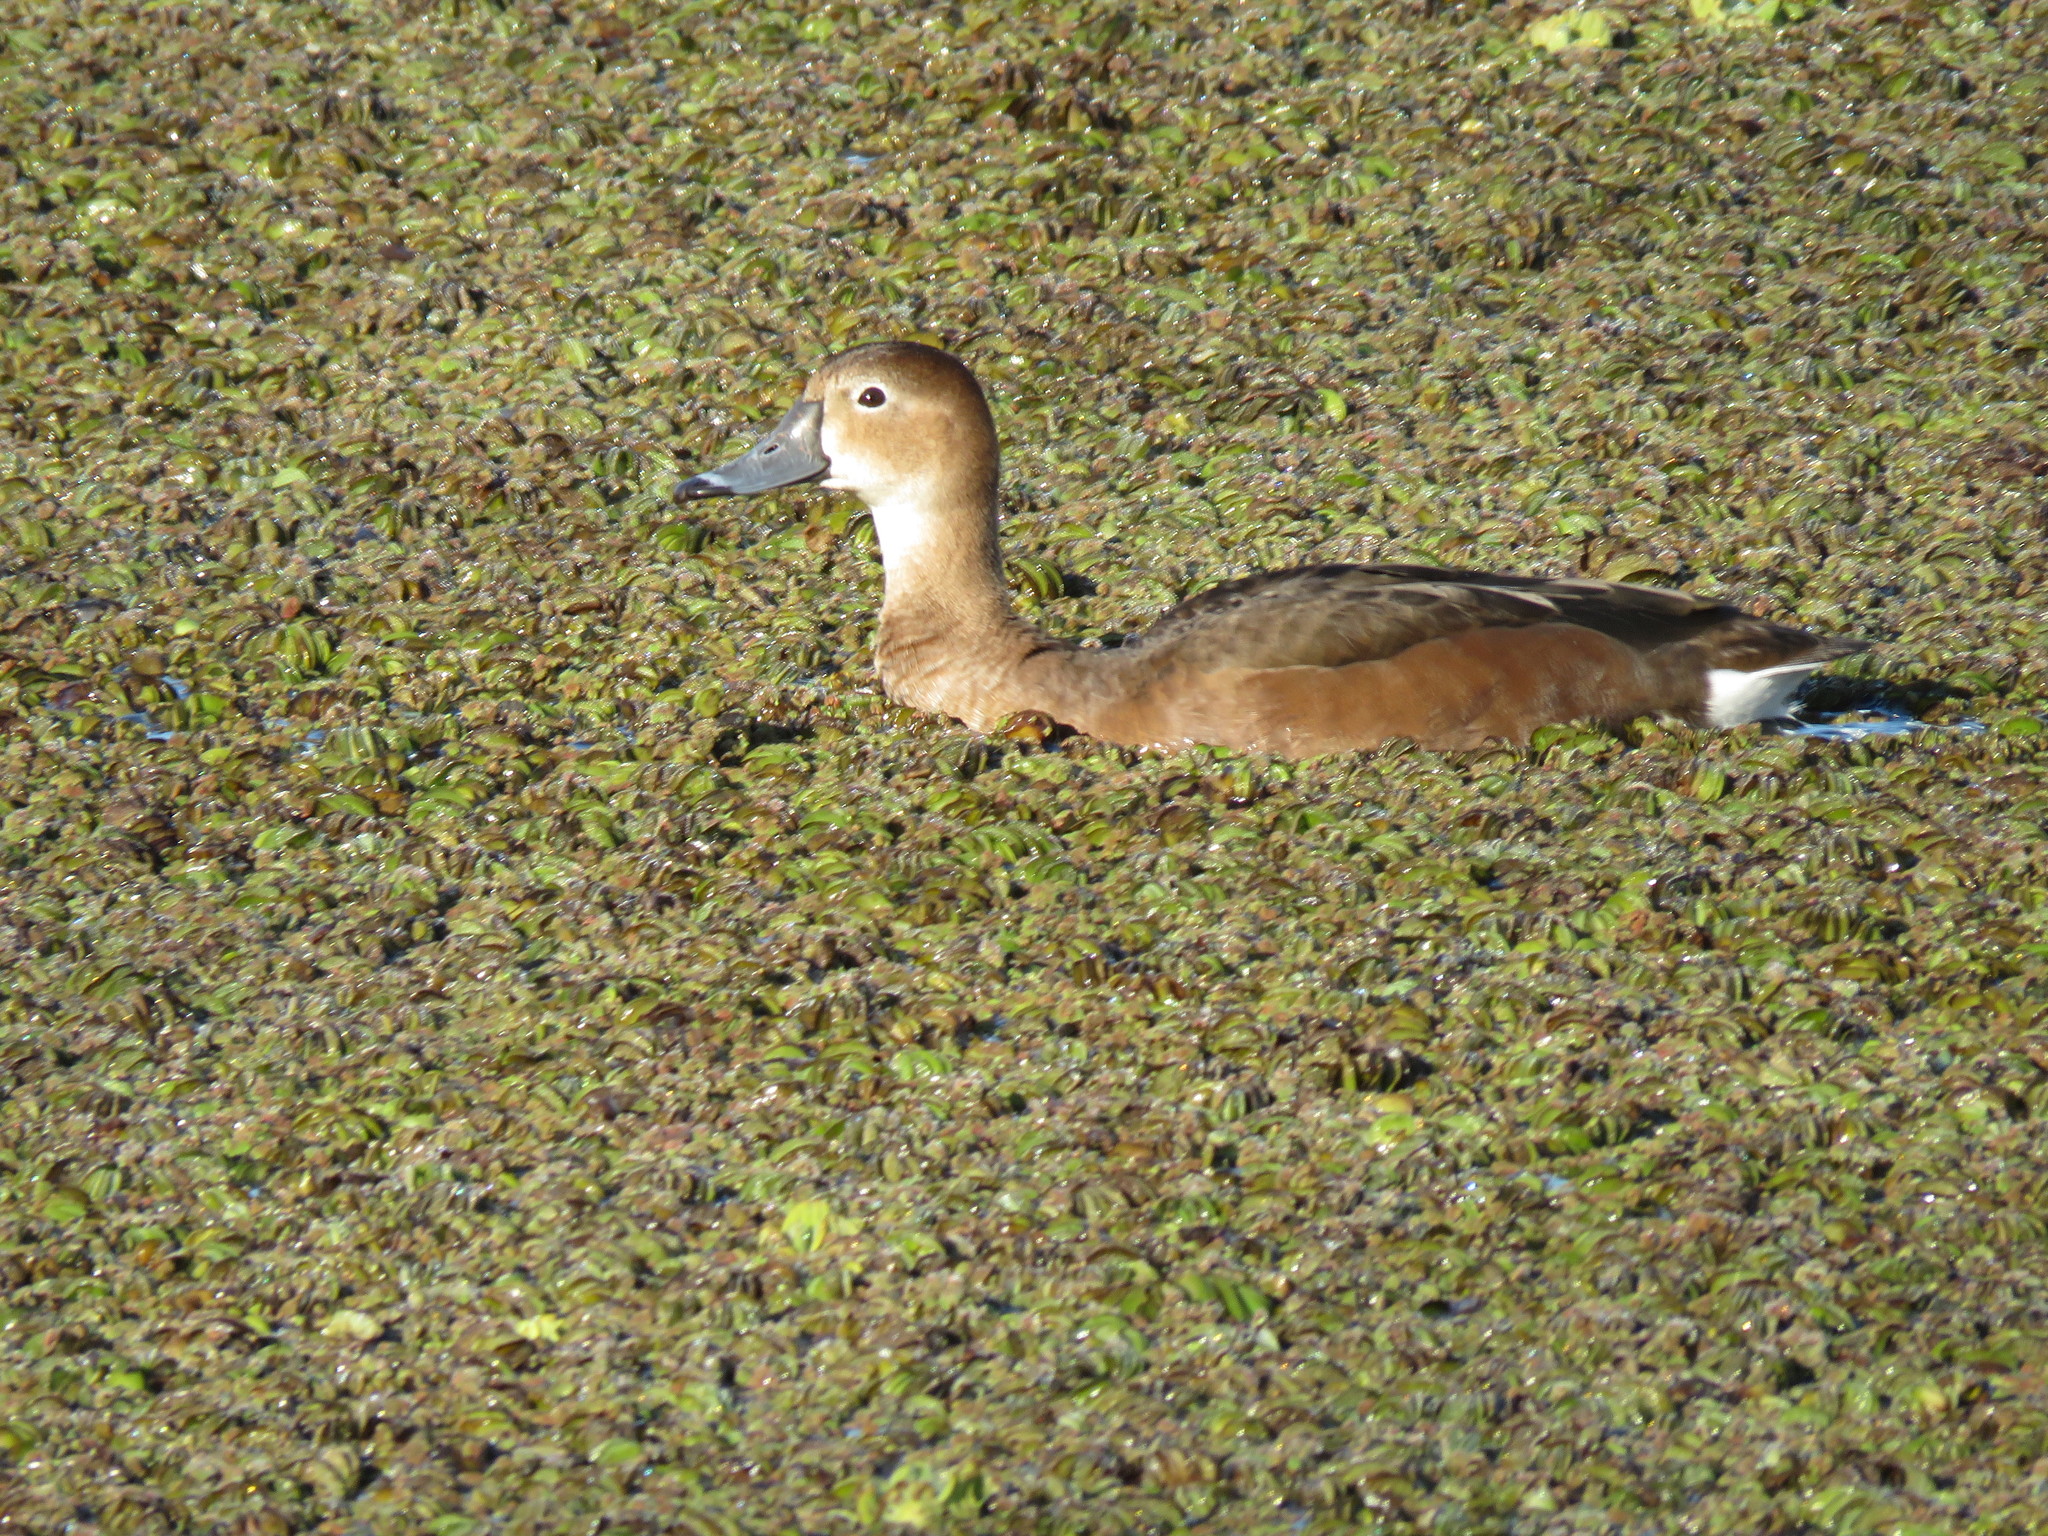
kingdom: Animalia
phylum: Chordata
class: Aves
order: Anseriformes
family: Anatidae
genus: Netta
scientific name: Netta peposaca
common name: Rosy-billed pochard
